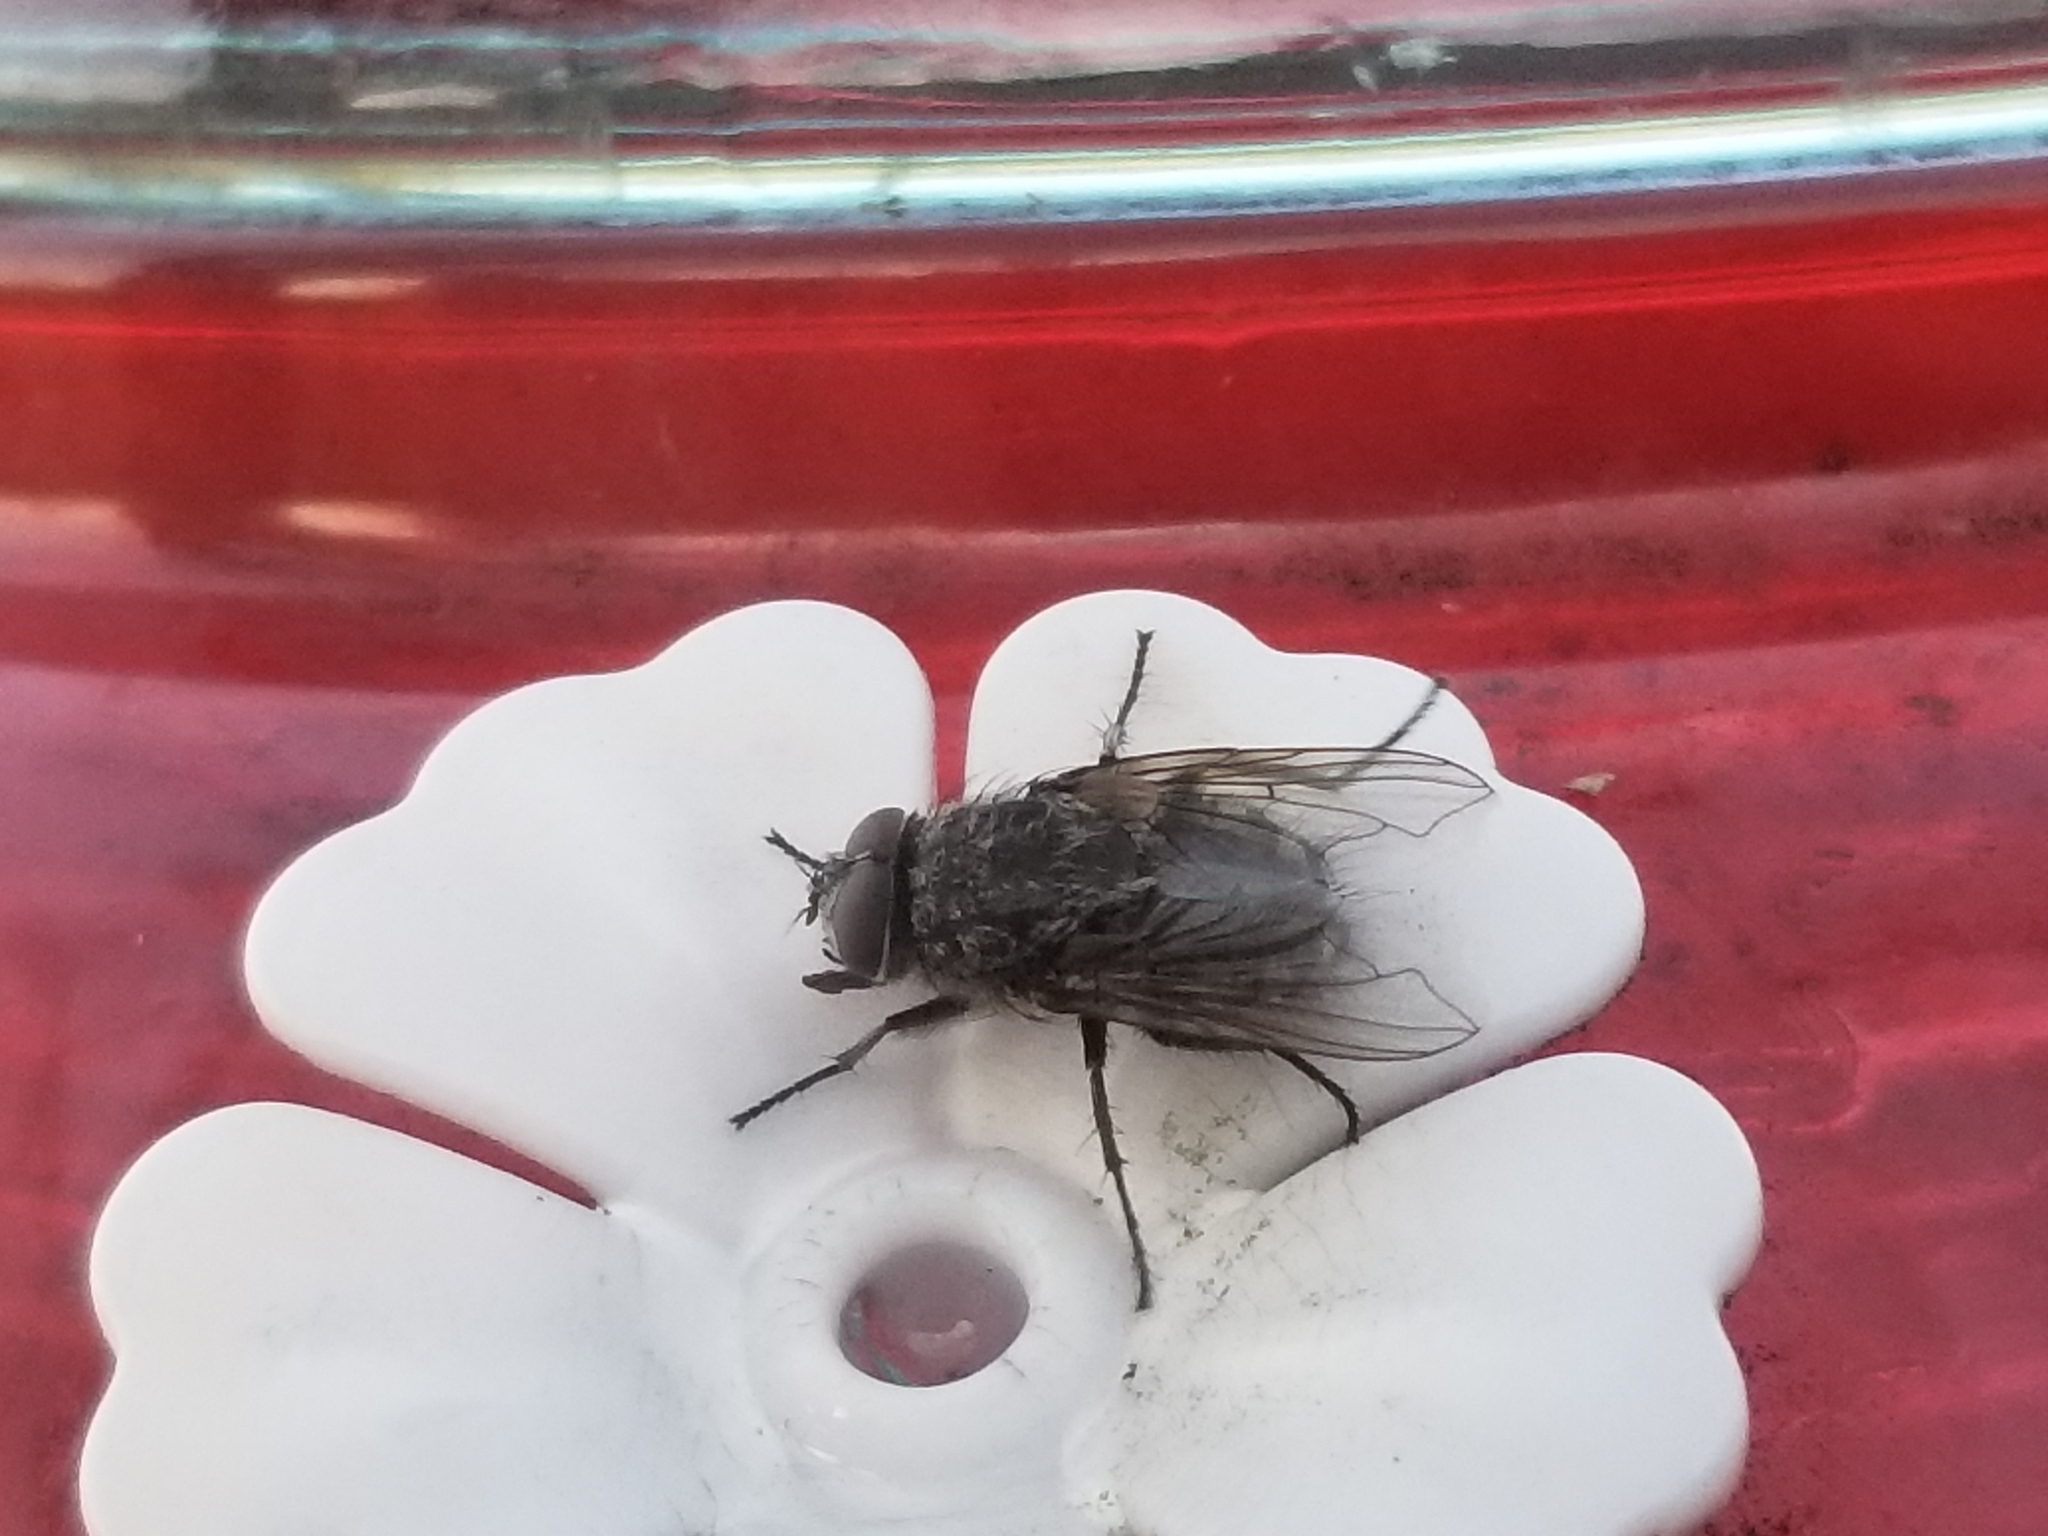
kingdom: Animalia
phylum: Arthropoda
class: Insecta
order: Diptera
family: Polleniidae
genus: Pollenia
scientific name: Pollenia
